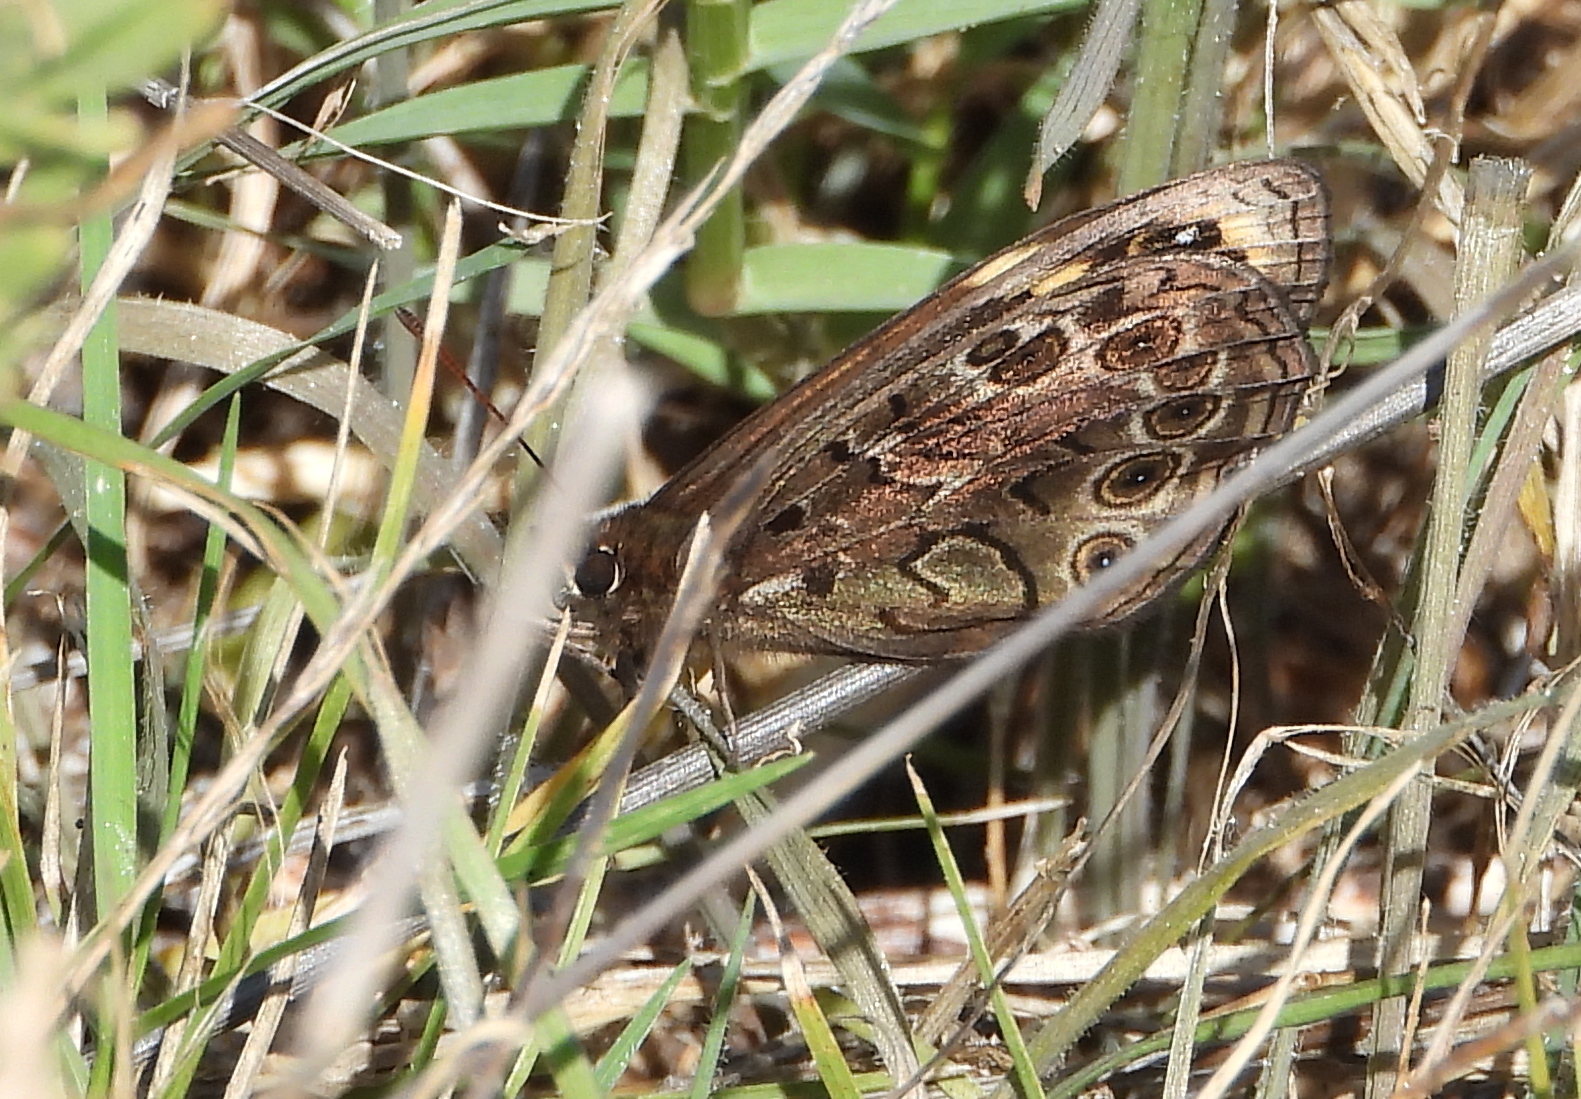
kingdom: Animalia
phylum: Arthropoda
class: Insecta
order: Lepidoptera
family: Nymphalidae
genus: Dira
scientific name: Dira clytus
